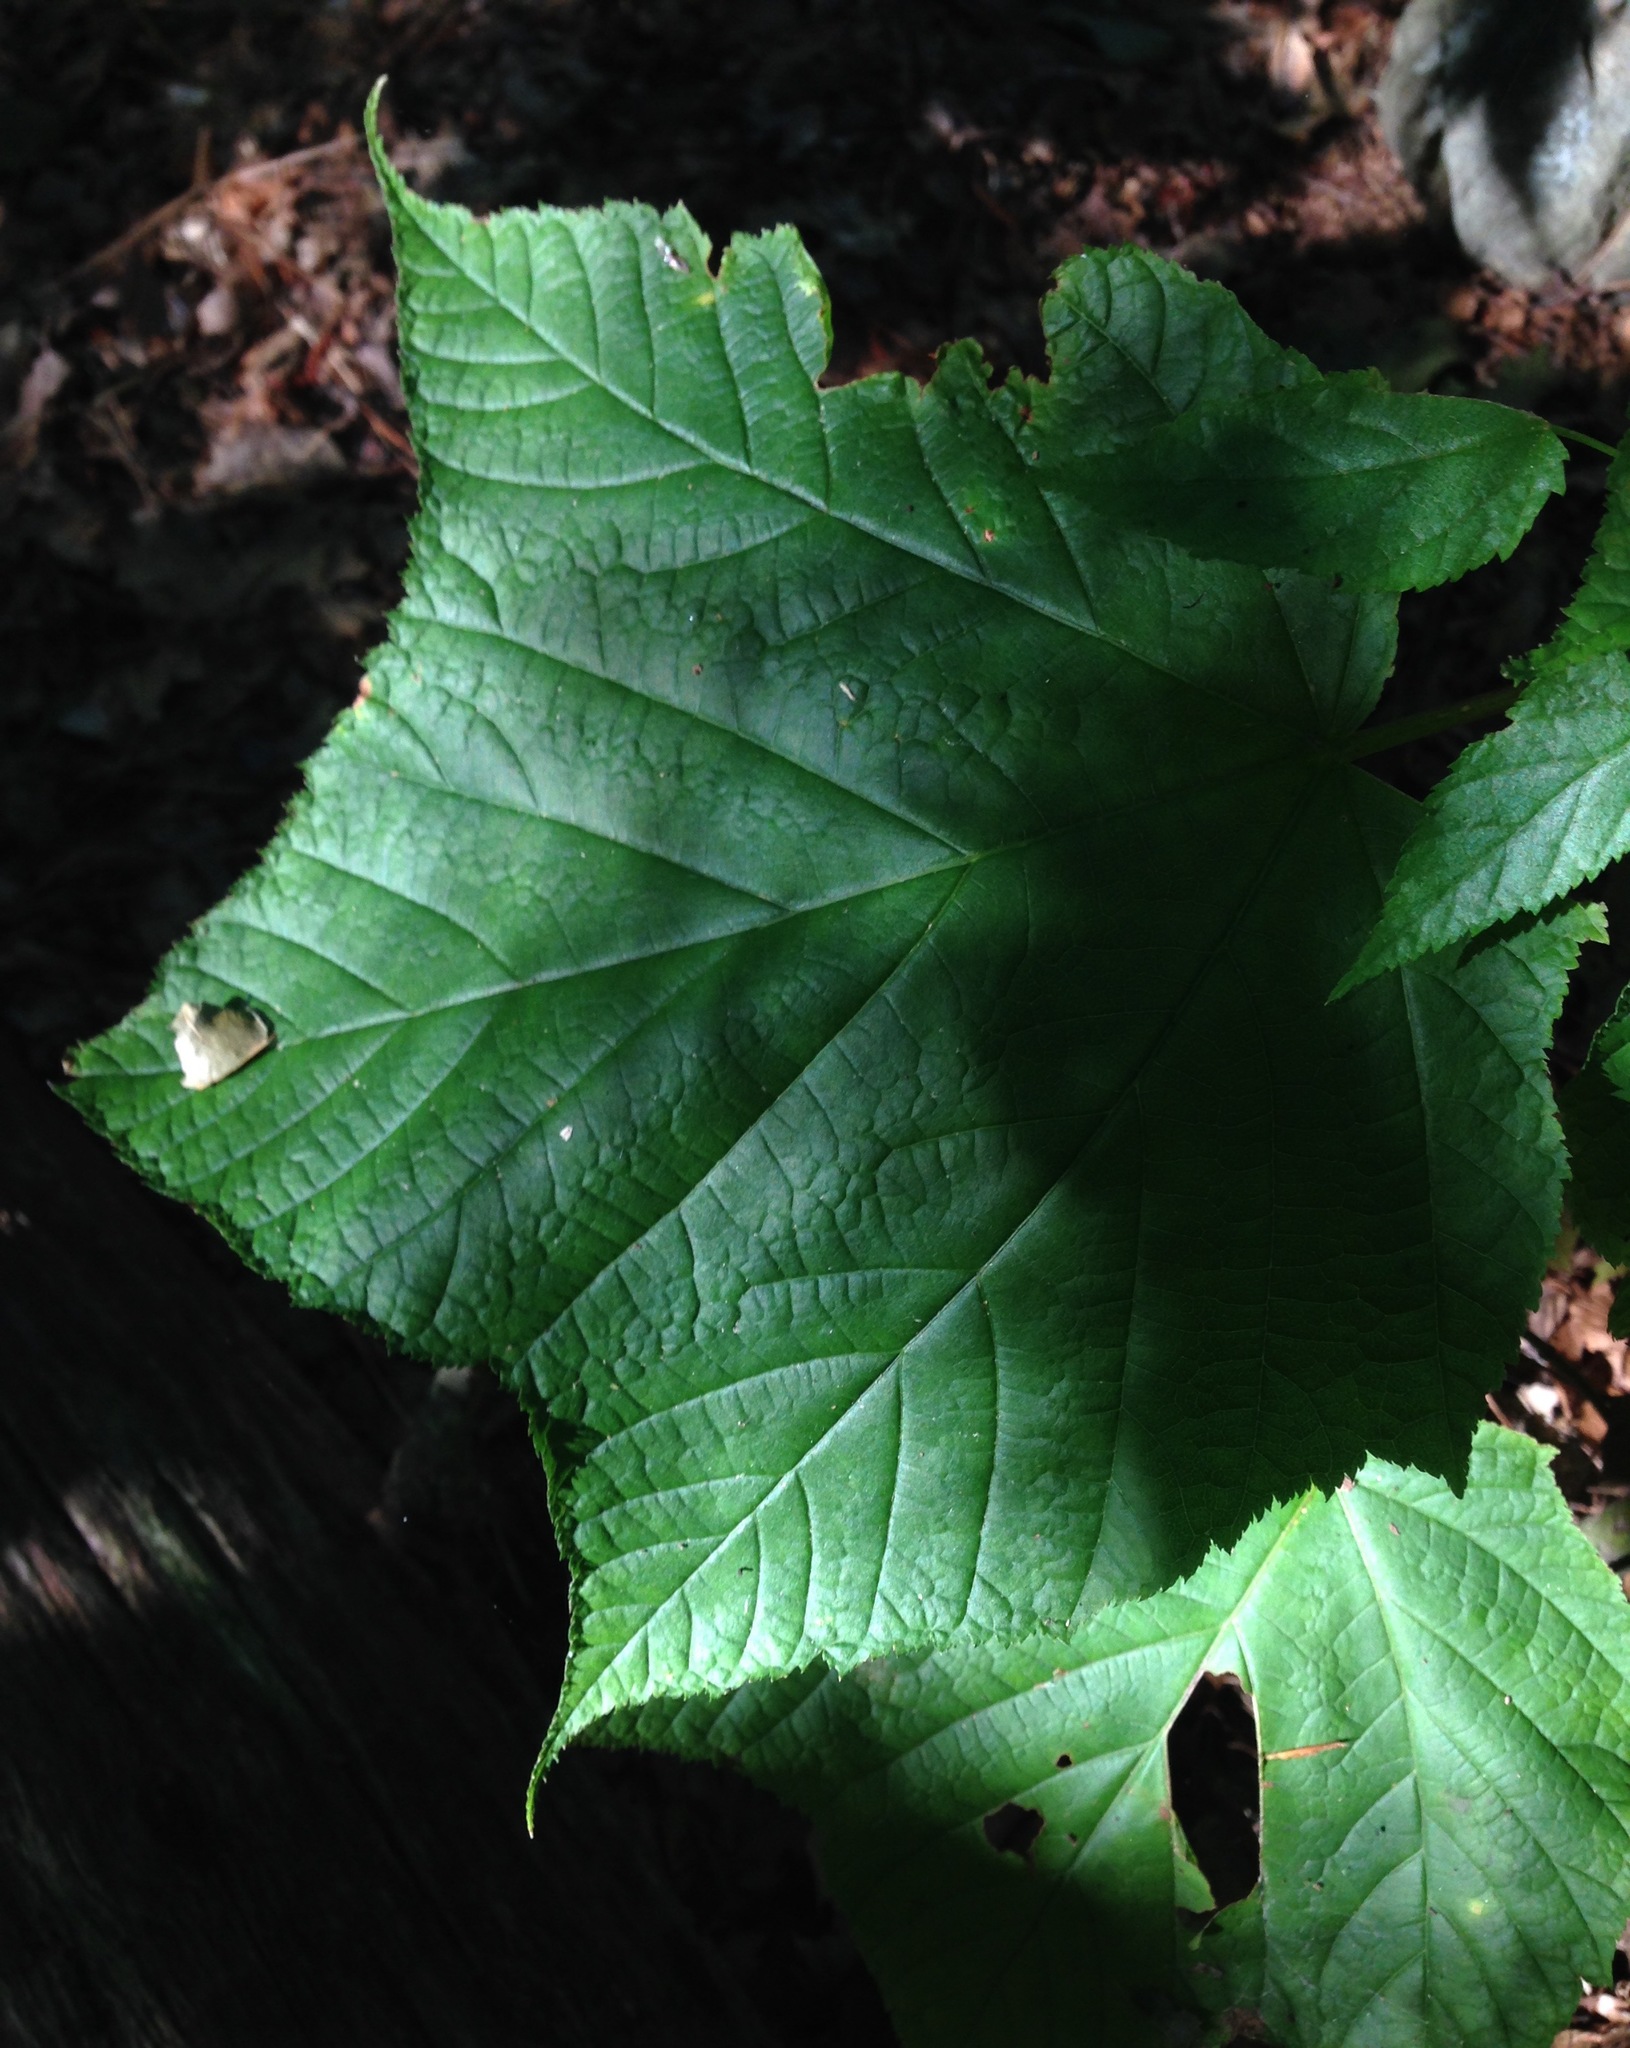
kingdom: Plantae
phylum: Tracheophyta
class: Magnoliopsida
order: Sapindales
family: Sapindaceae
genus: Acer
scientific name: Acer pensylvanicum
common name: Moosewood
